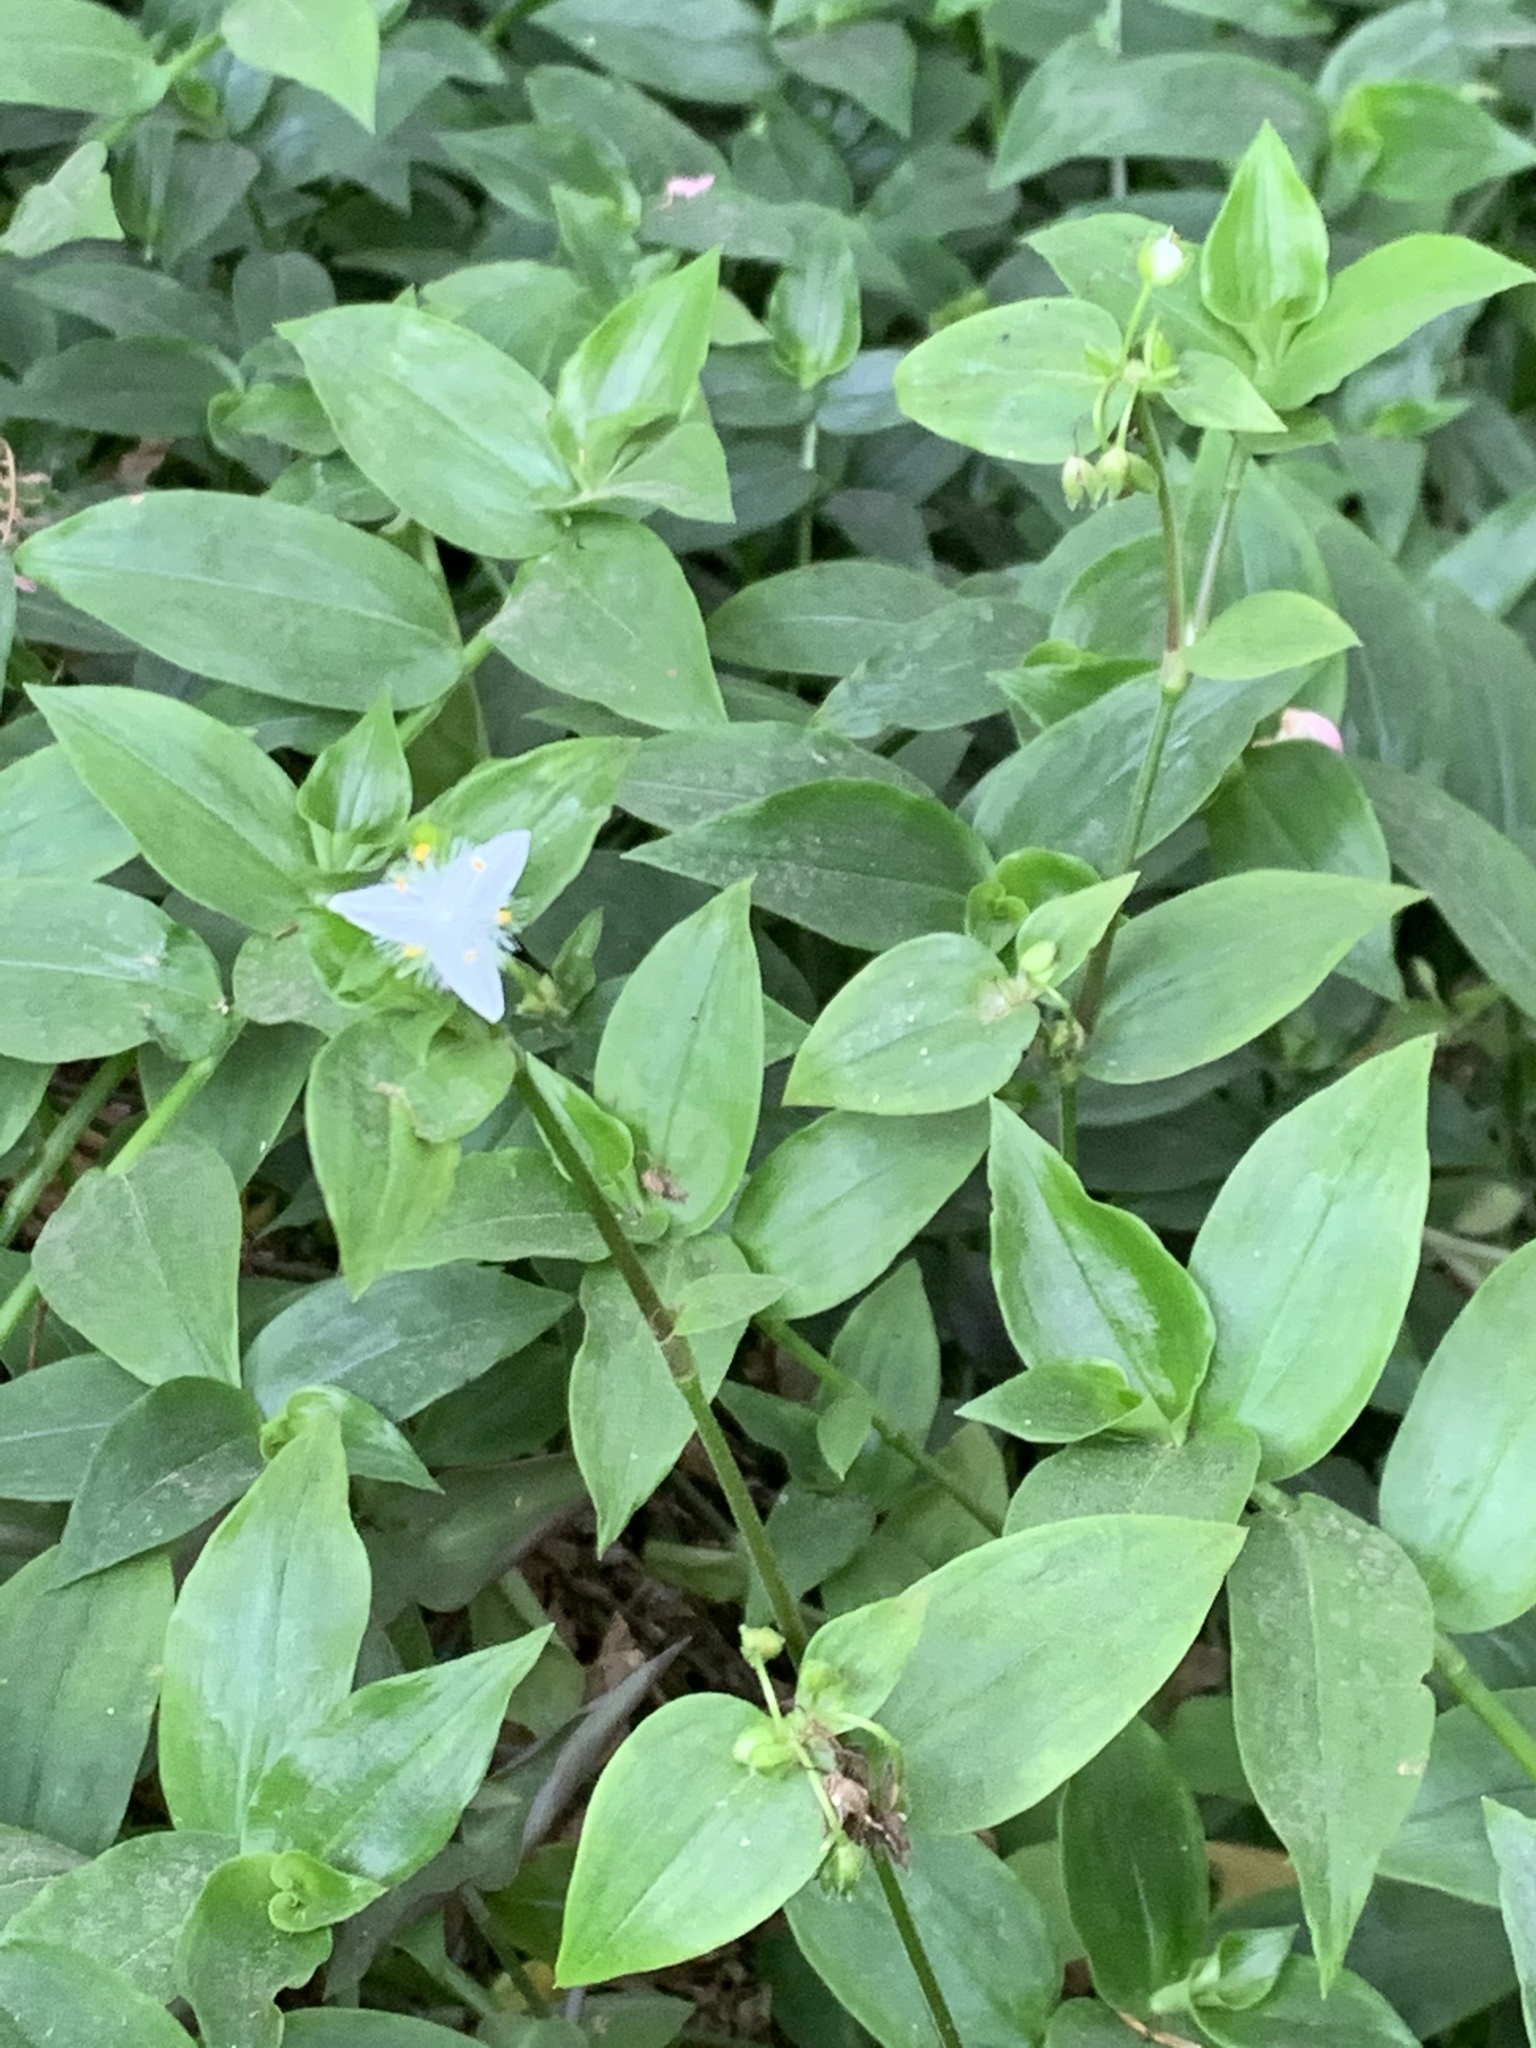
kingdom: Plantae
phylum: Tracheophyta
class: Liliopsida
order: Commelinales
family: Commelinaceae
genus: Tradescantia
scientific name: Tradescantia fluminensis
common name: Wandering-jew
